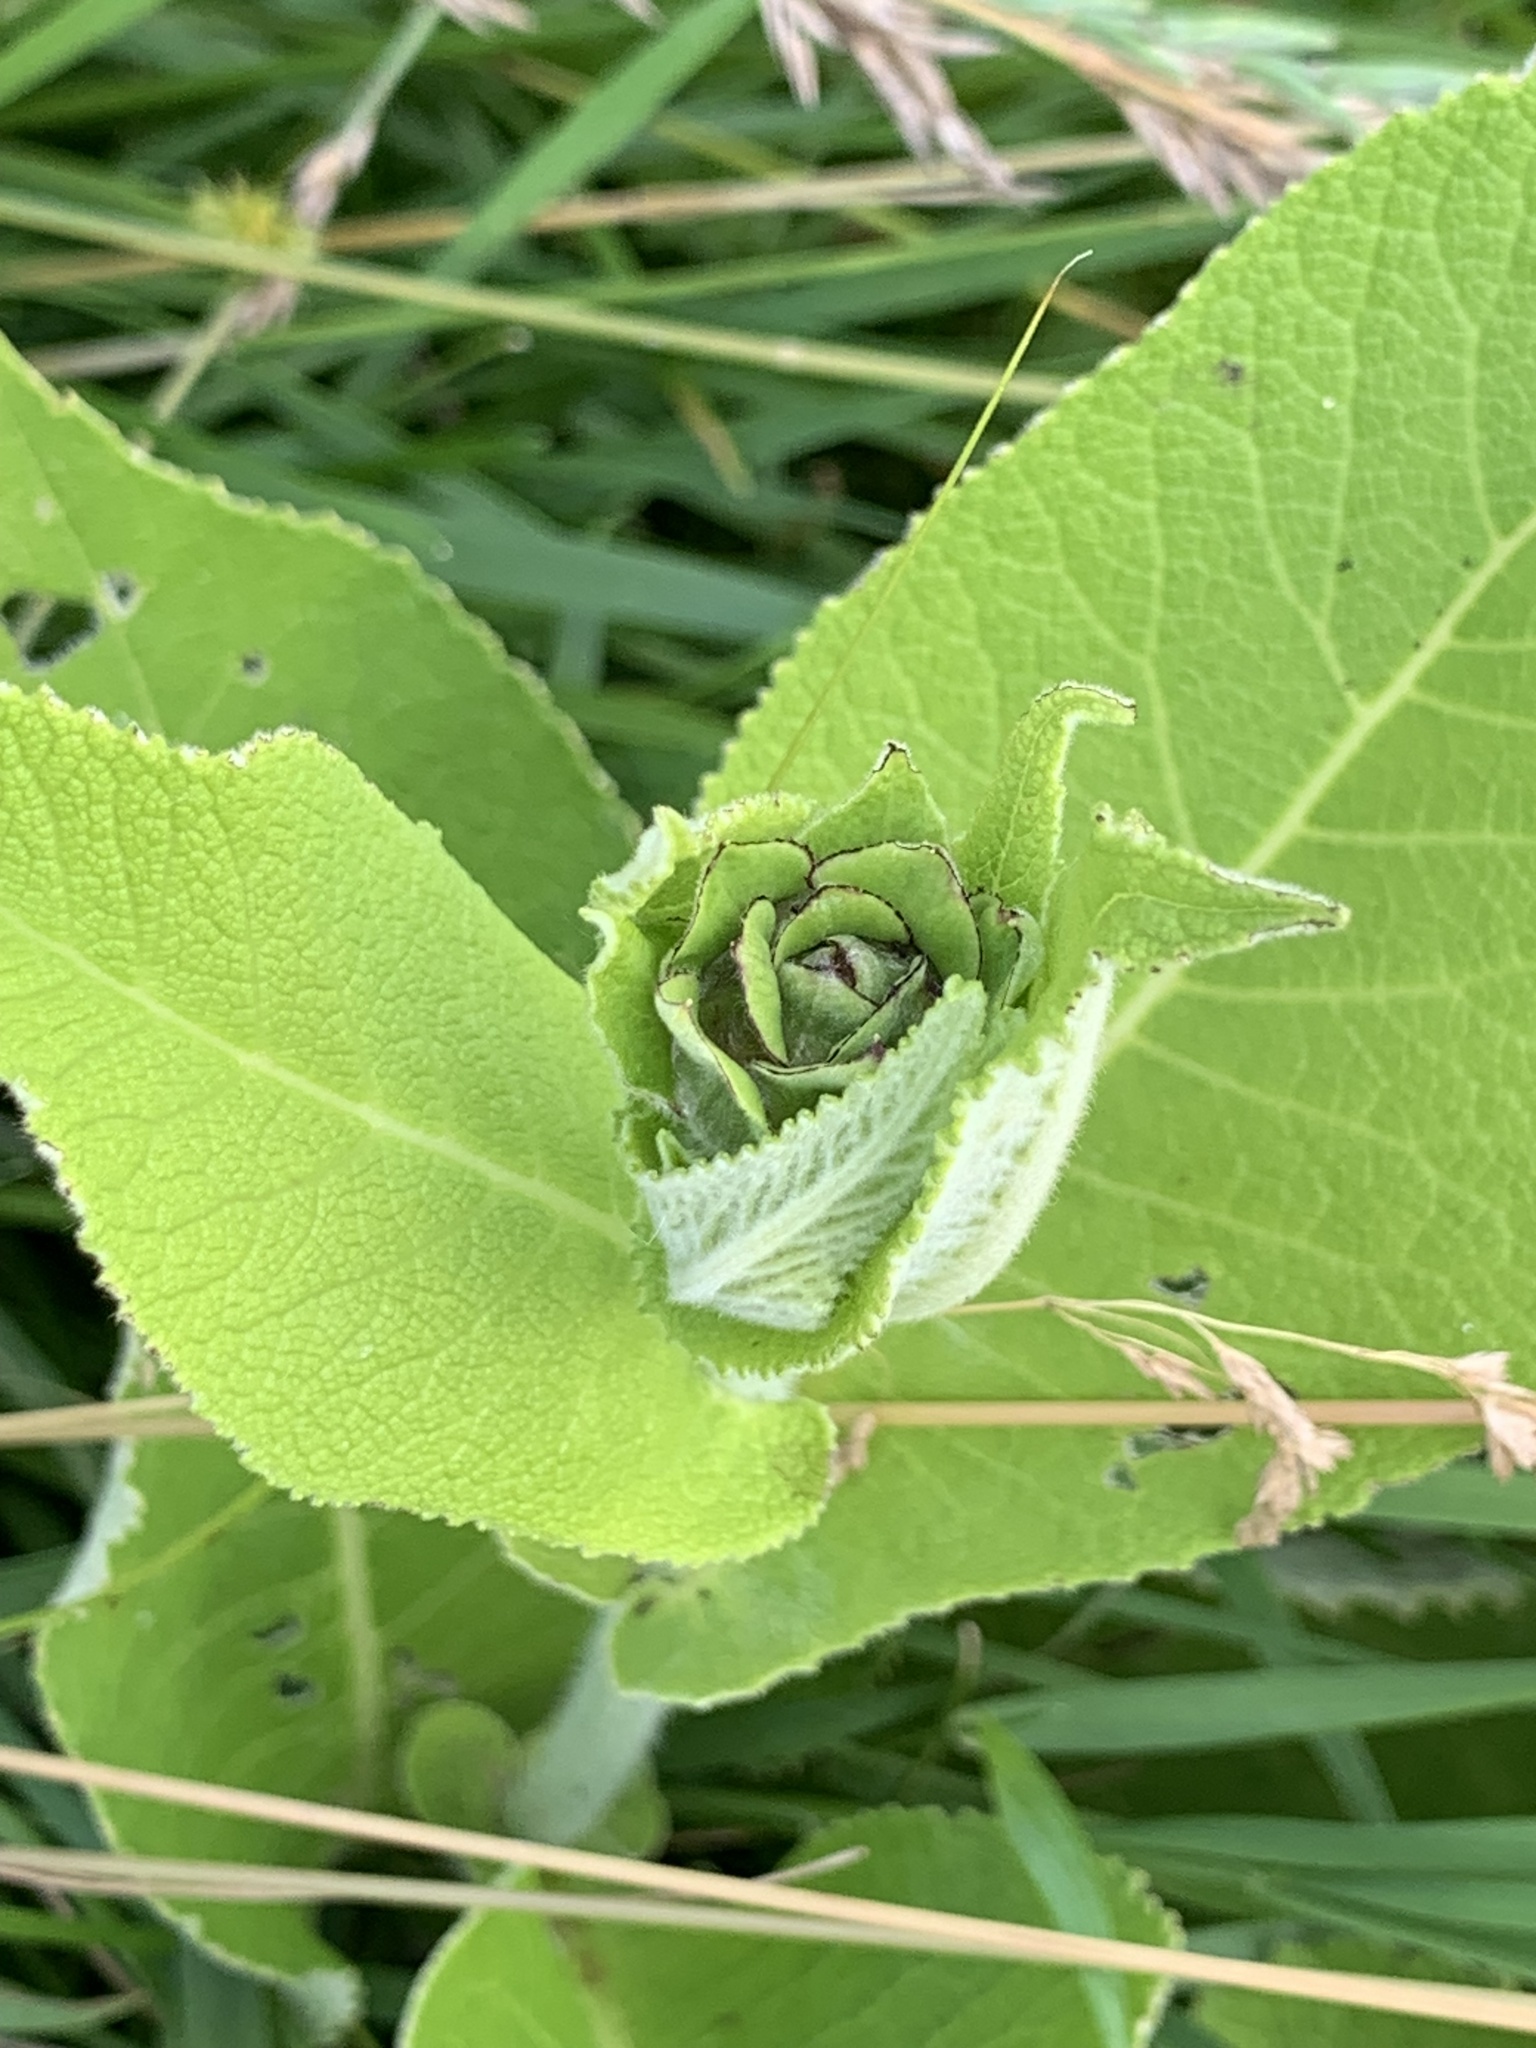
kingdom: Plantae
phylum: Tracheophyta
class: Magnoliopsida
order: Asterales
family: Asteraceae
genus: Inula
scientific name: Inula helenium
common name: Elecampane
